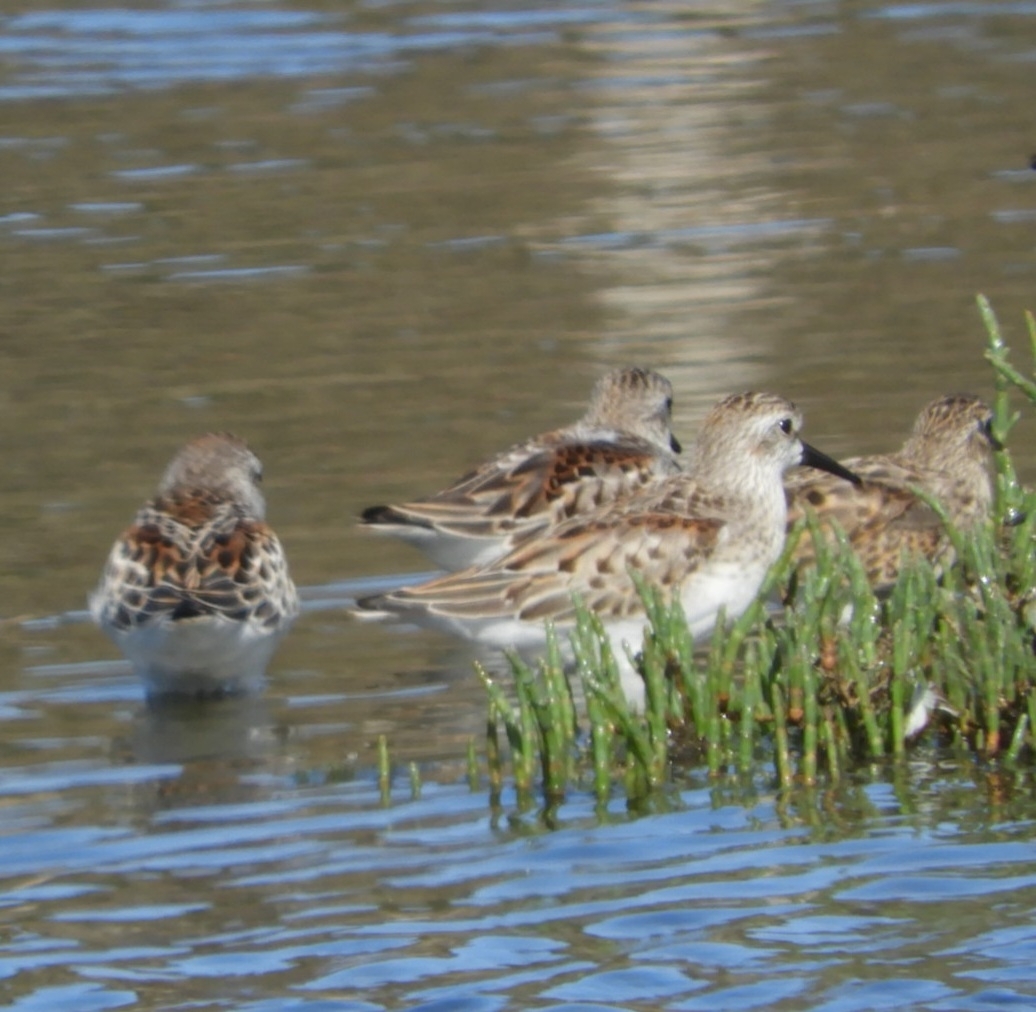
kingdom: Animalia
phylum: Chordata
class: Aves
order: Charadriiformes
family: Scolopacidae
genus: Calidris
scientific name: Calidris mauri
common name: Western sandpiper
